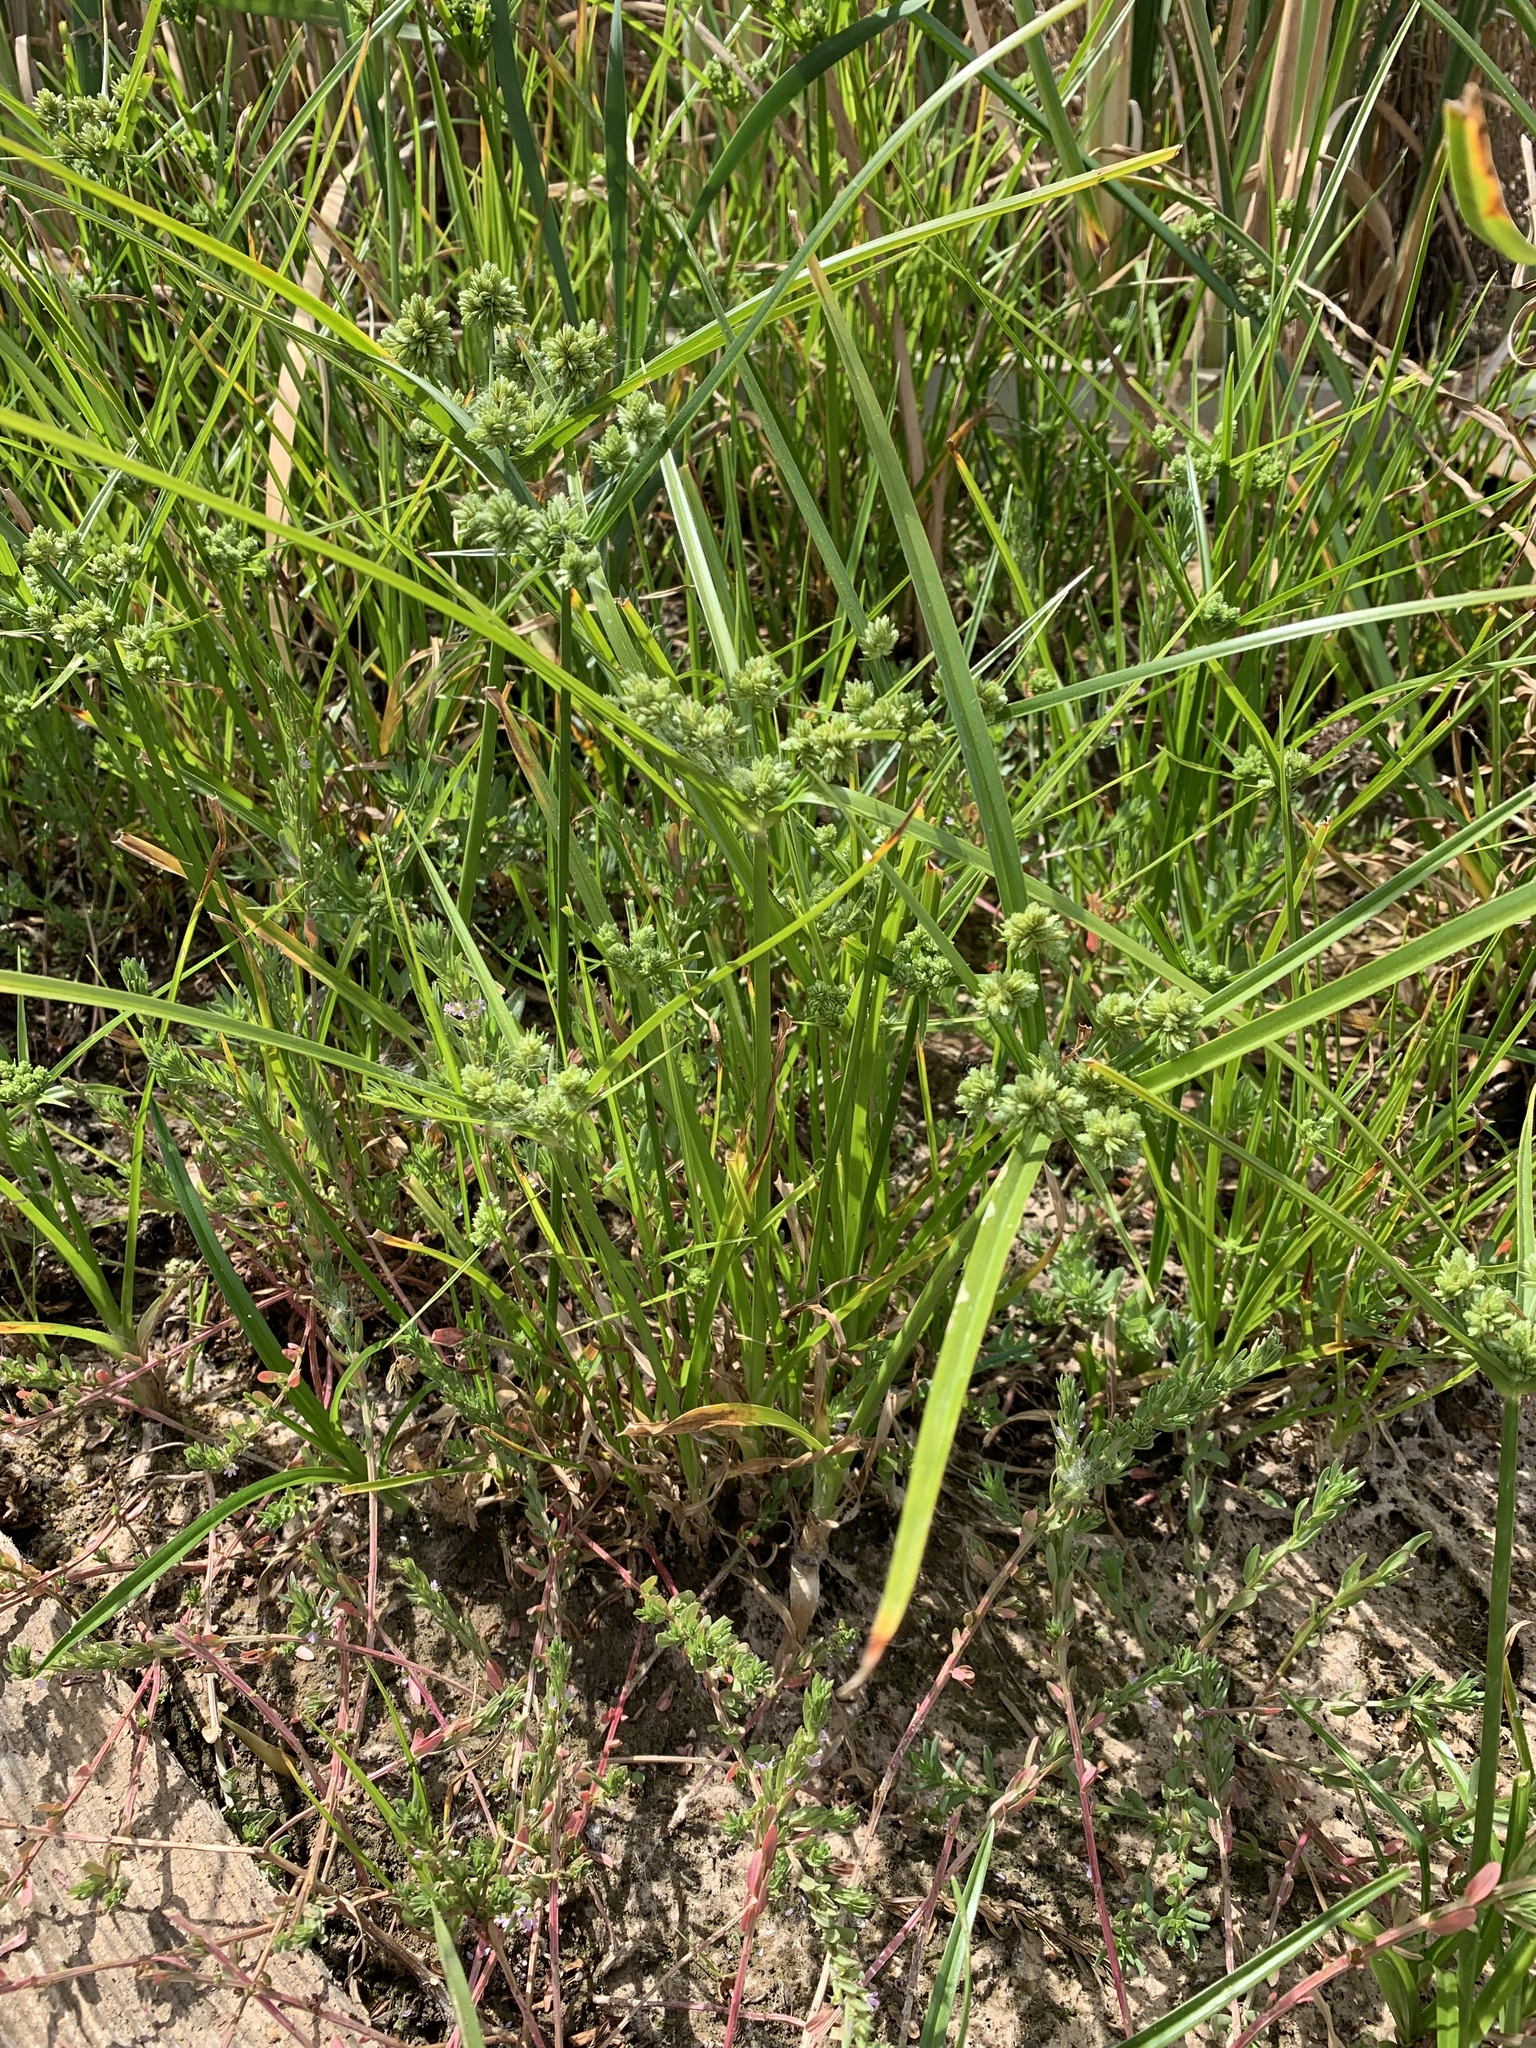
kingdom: Plantae
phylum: Tracheophyta
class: Liliopsida
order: Poales
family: Cyperaceae
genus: Cyperus
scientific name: Cyperus eragrostis
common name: Tall flatsedge
